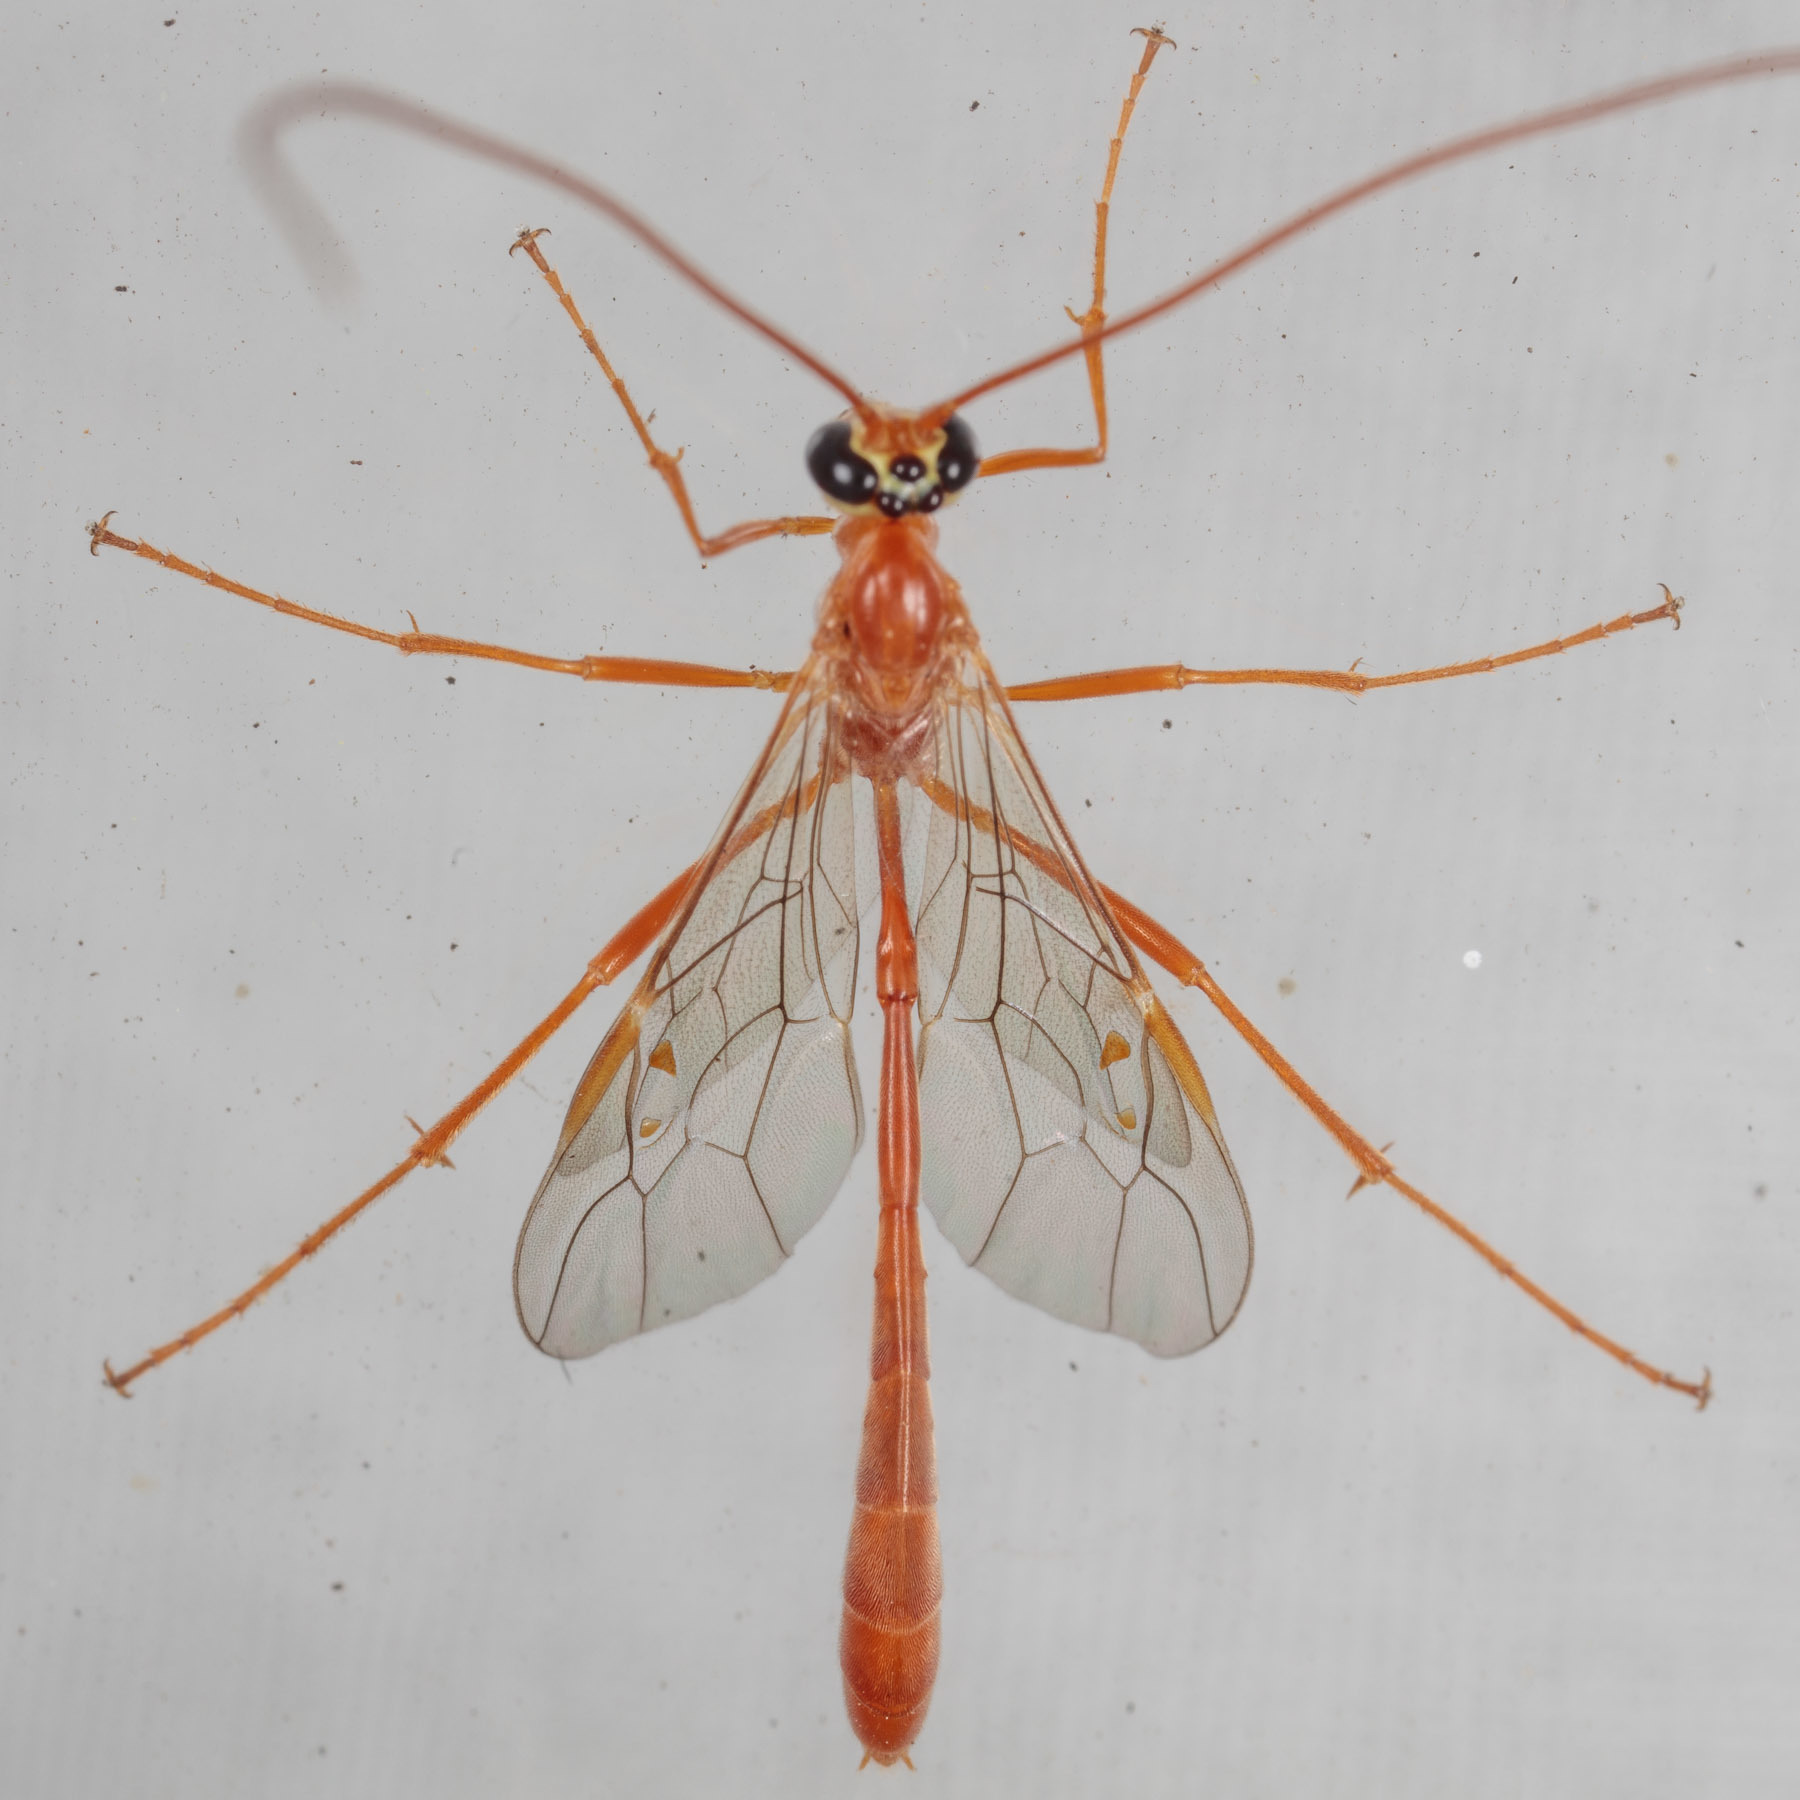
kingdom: Animalia
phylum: Arthropoda
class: Insecta
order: Hymenoptera
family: Ichneumonidae
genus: Enicospilus
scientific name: Enicospilus purgatus
